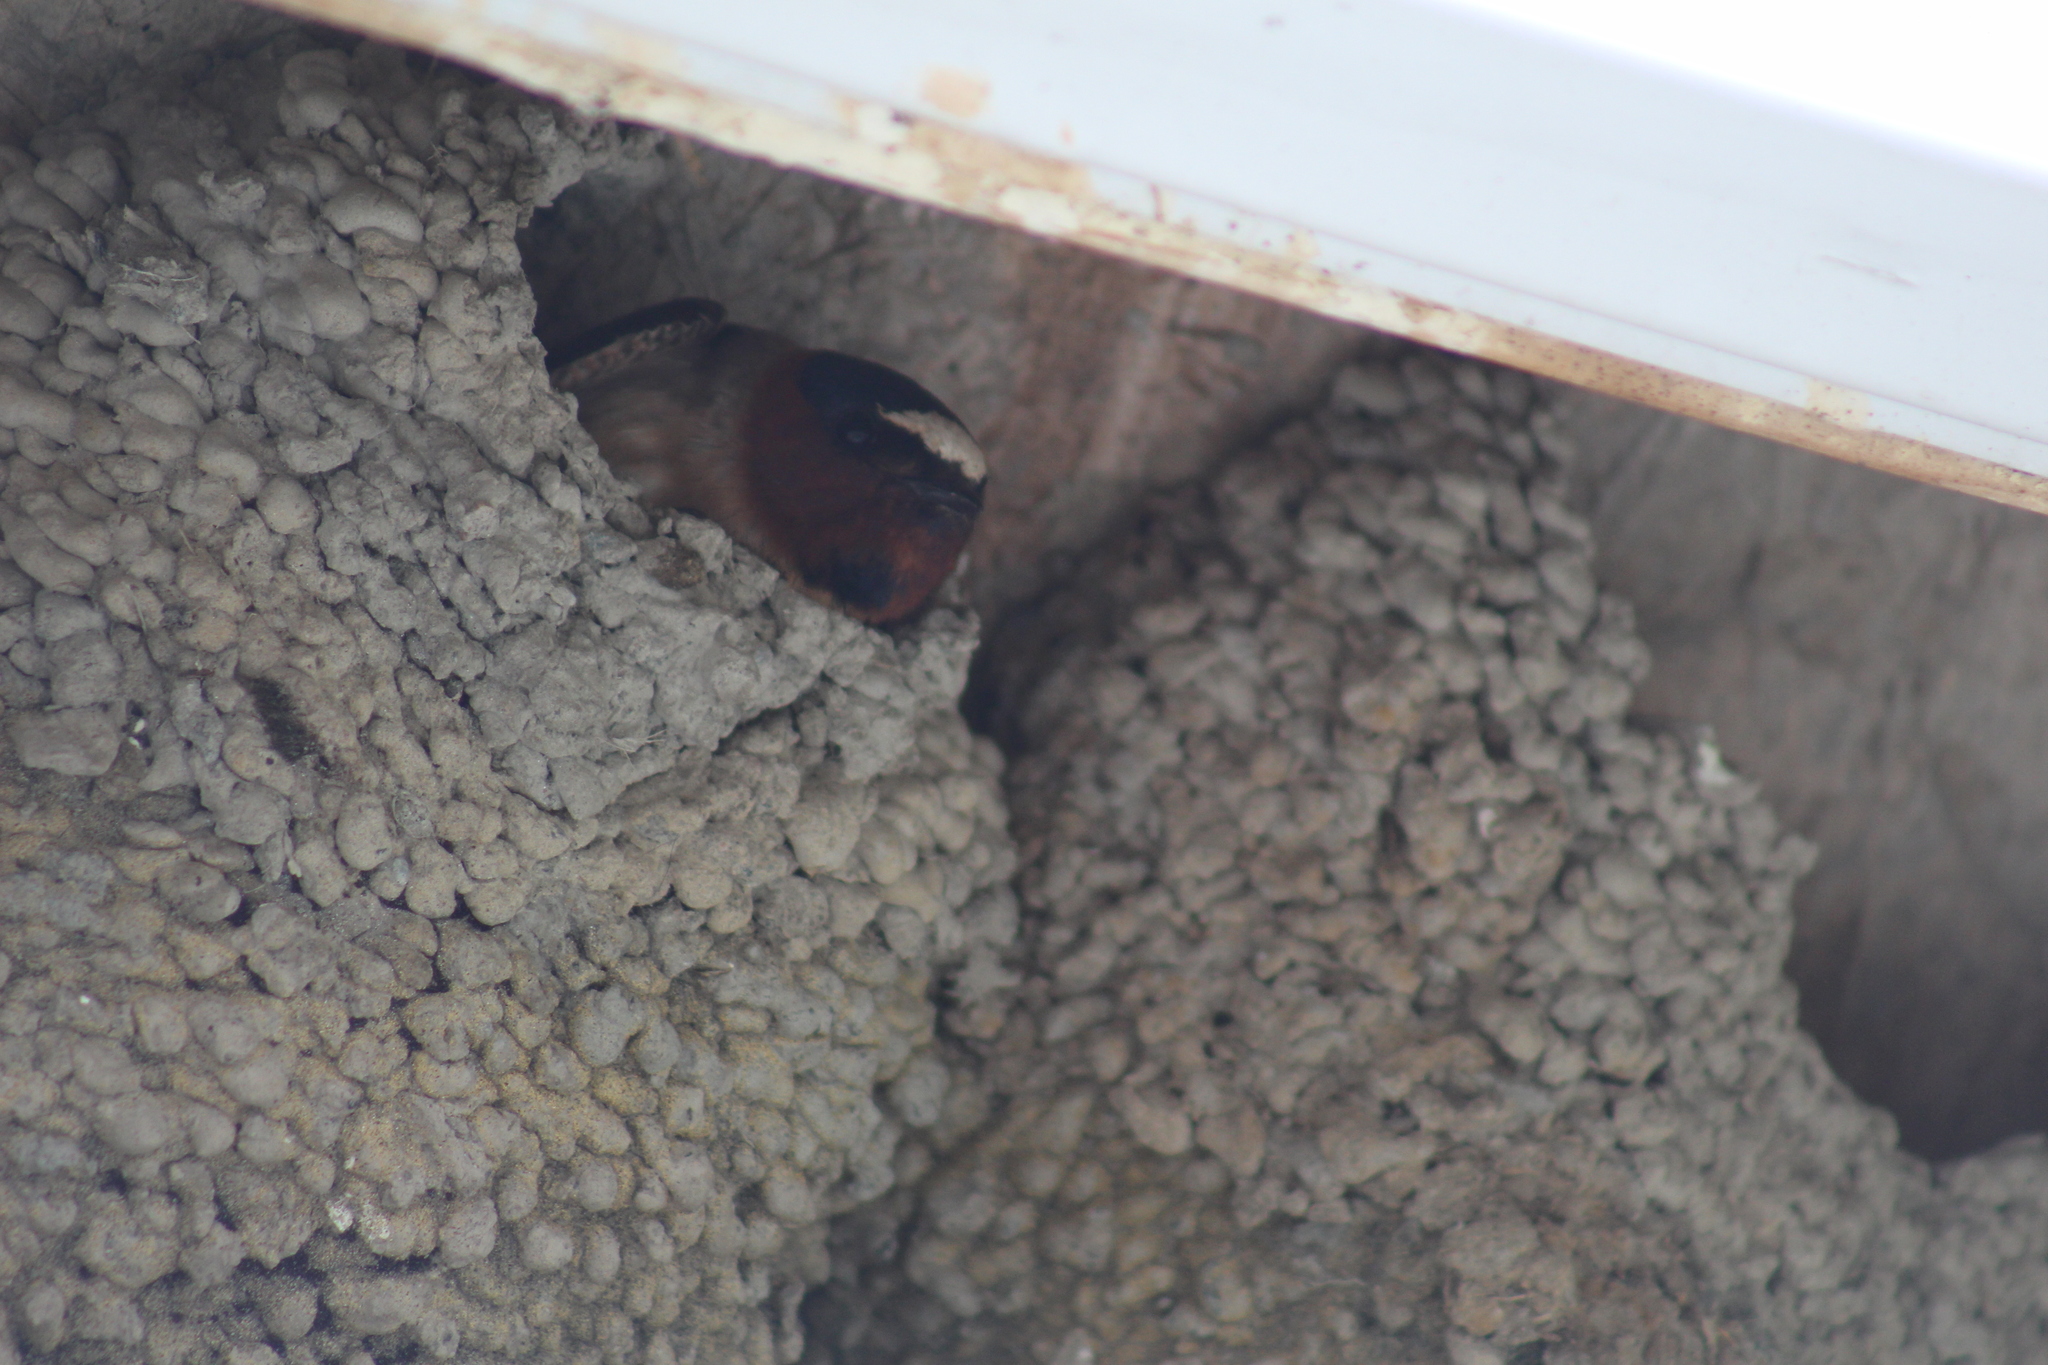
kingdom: Animalia
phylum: Chordata
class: Aves
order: Passeriformes
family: Hirundinidae
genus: Petrochelidon
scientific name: Petrochelidon pyrrhonota
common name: American cliff swallow
